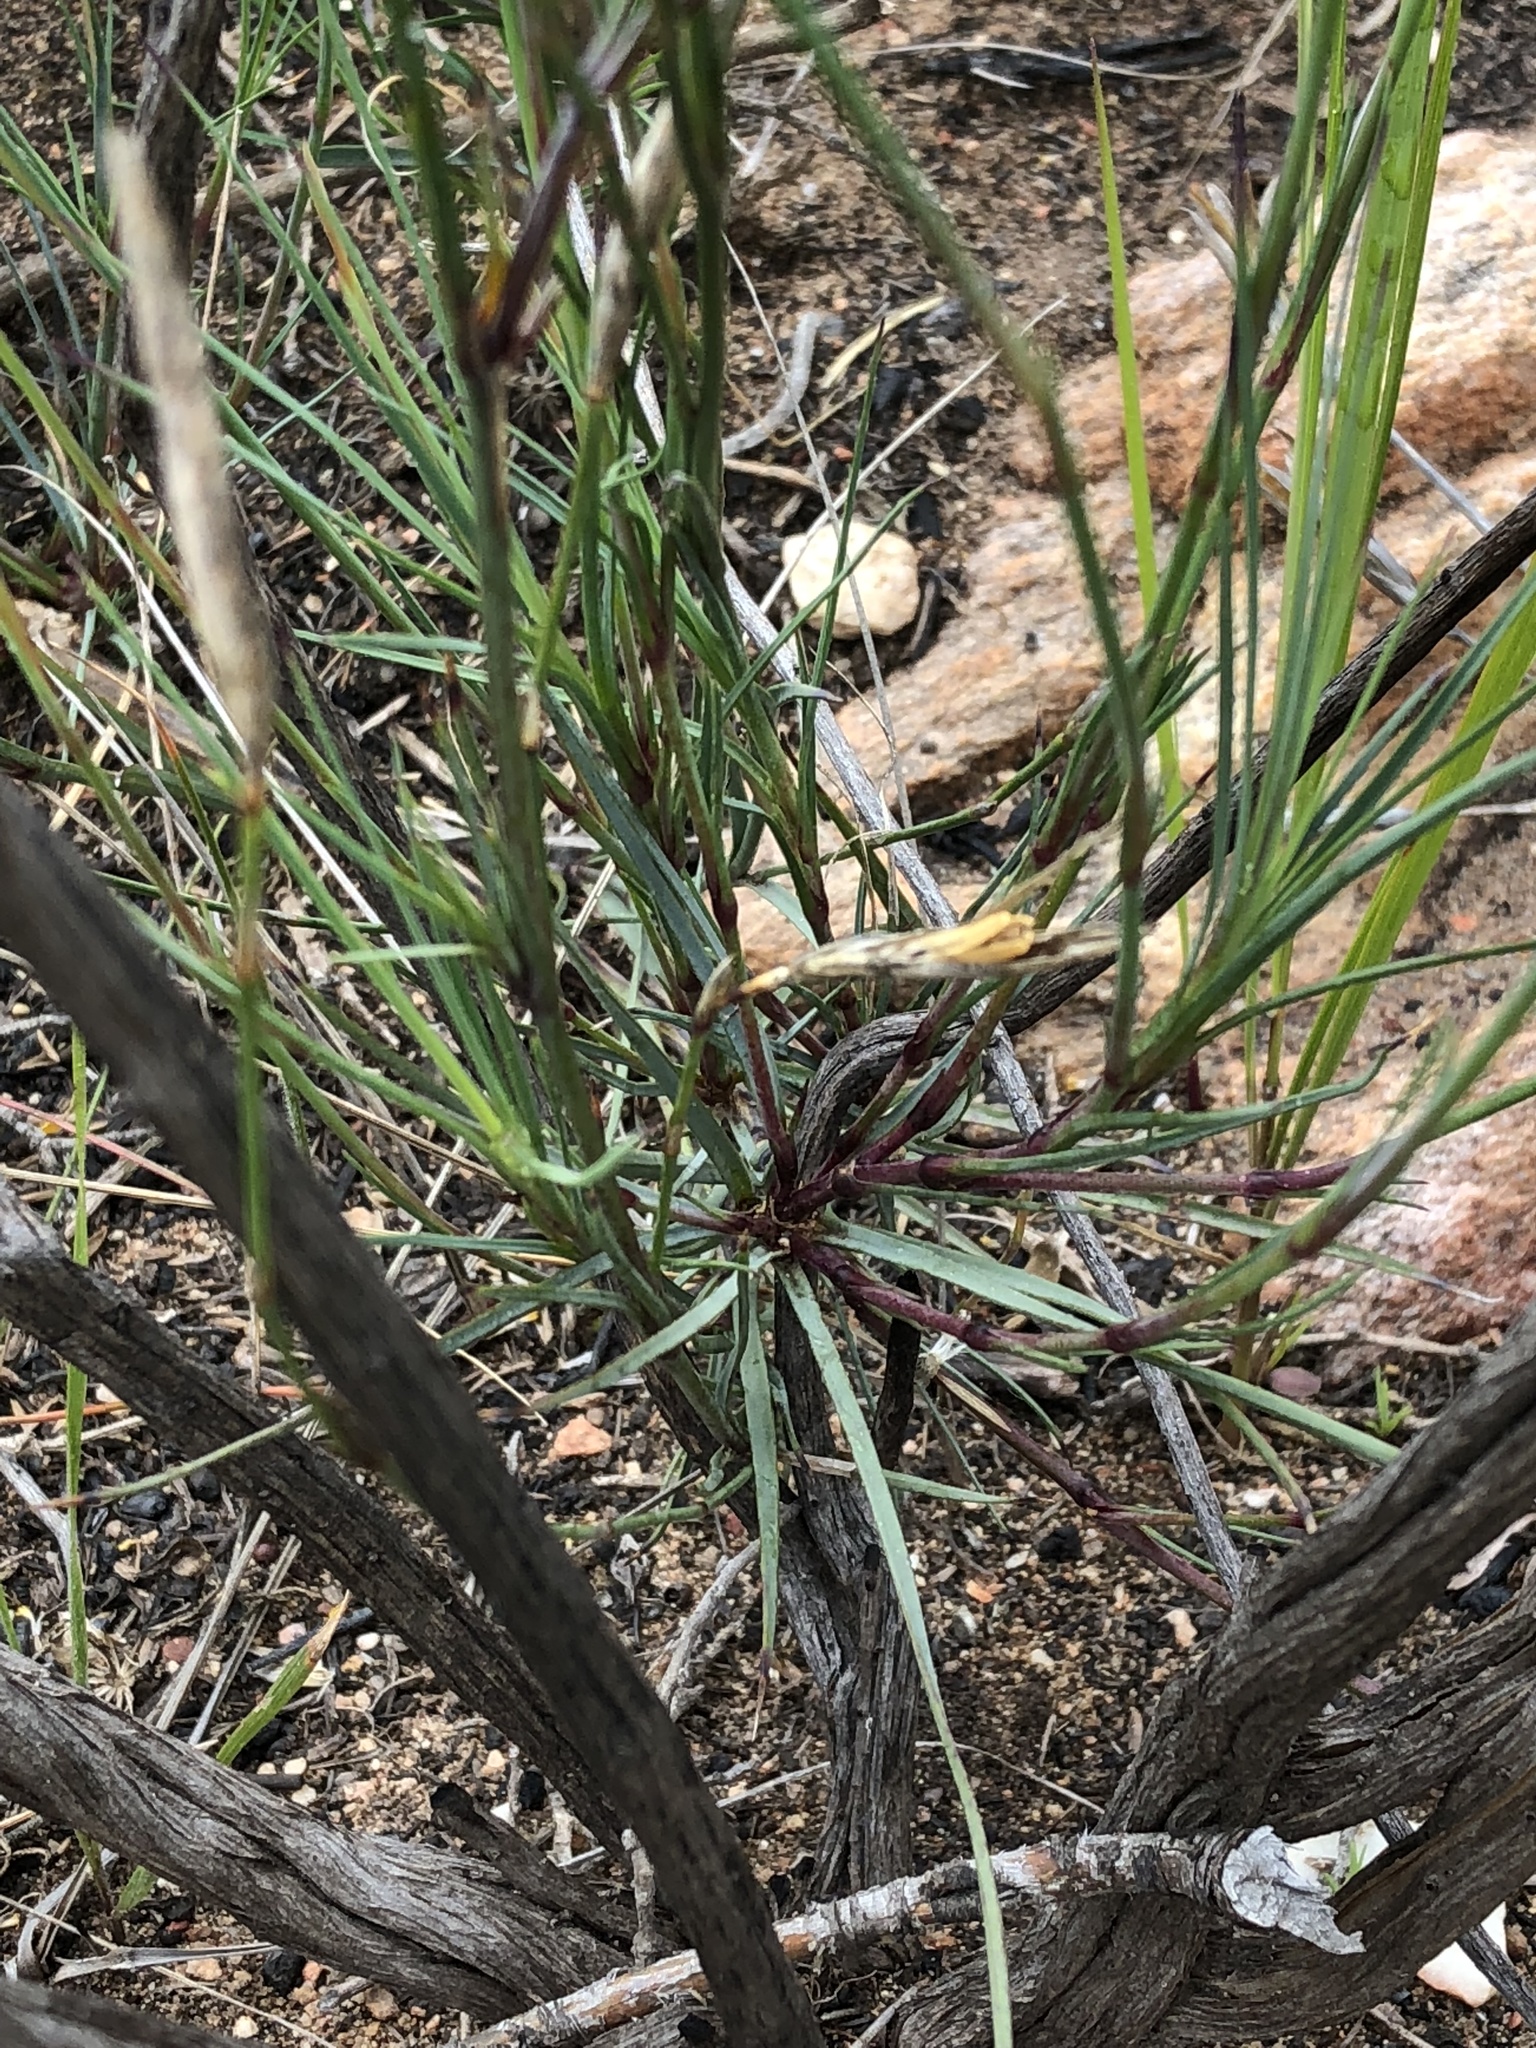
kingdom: Plantae
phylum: Tracheophyta
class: Magnoliopsida
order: Caryophyllales
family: Caryophyllaceae
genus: Dianthus
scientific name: Dianthus basuticus
